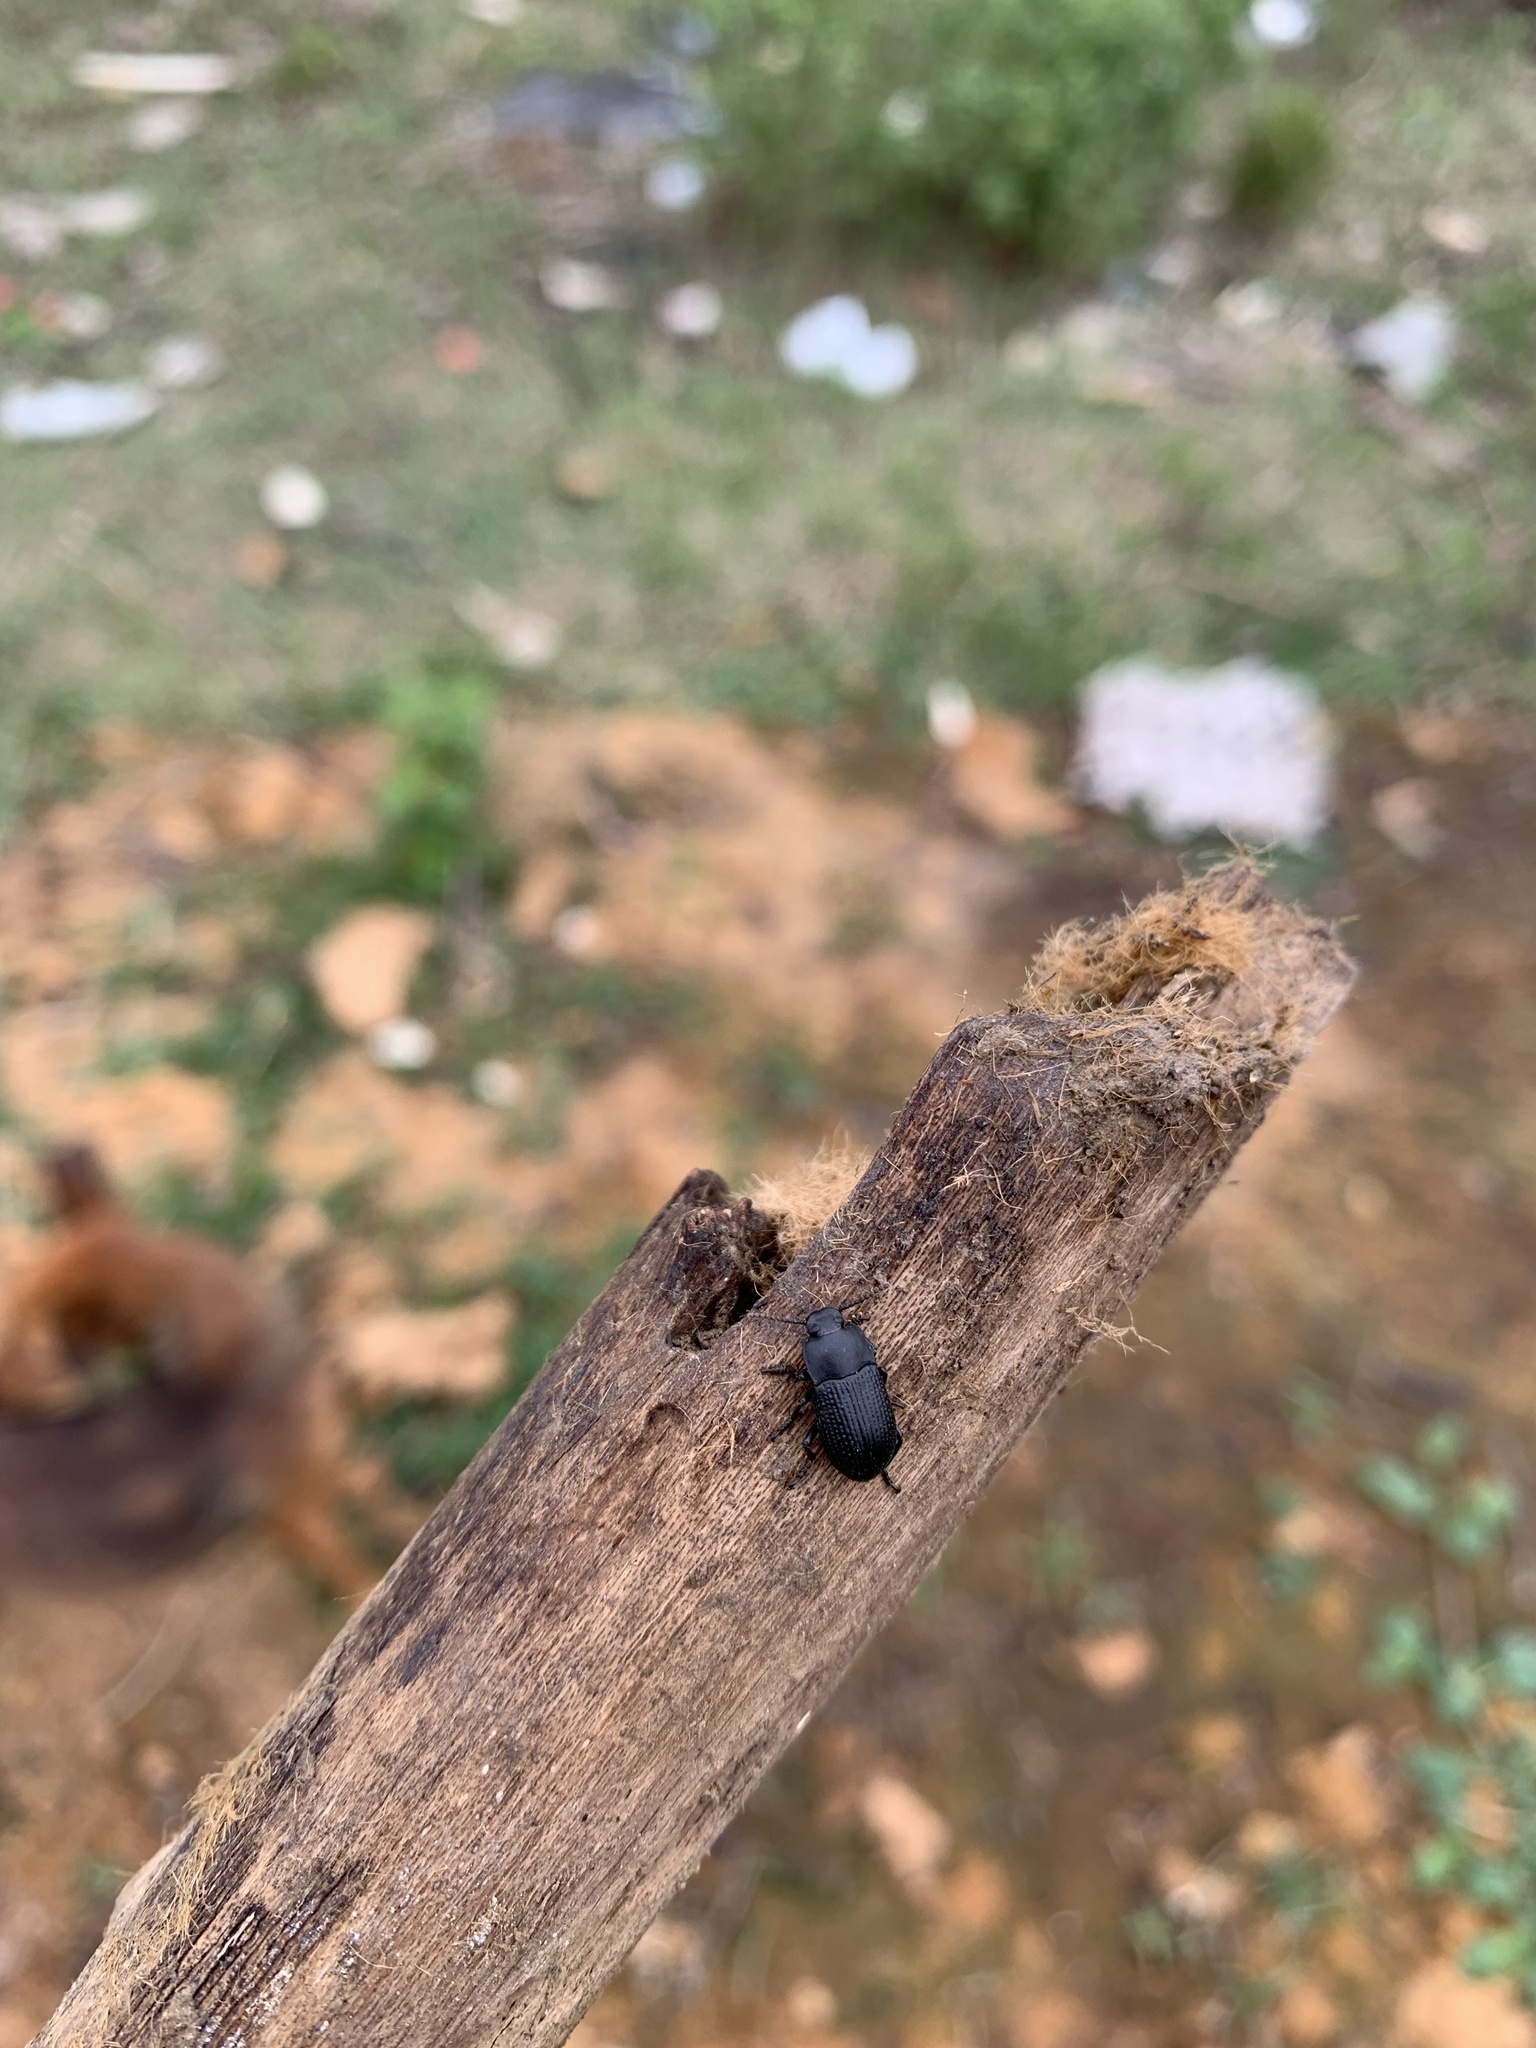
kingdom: Animalia
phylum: Arthropoda
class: Insecta
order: Coleoptera
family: Tenebrionidae
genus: Asiopus
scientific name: Asiopus
